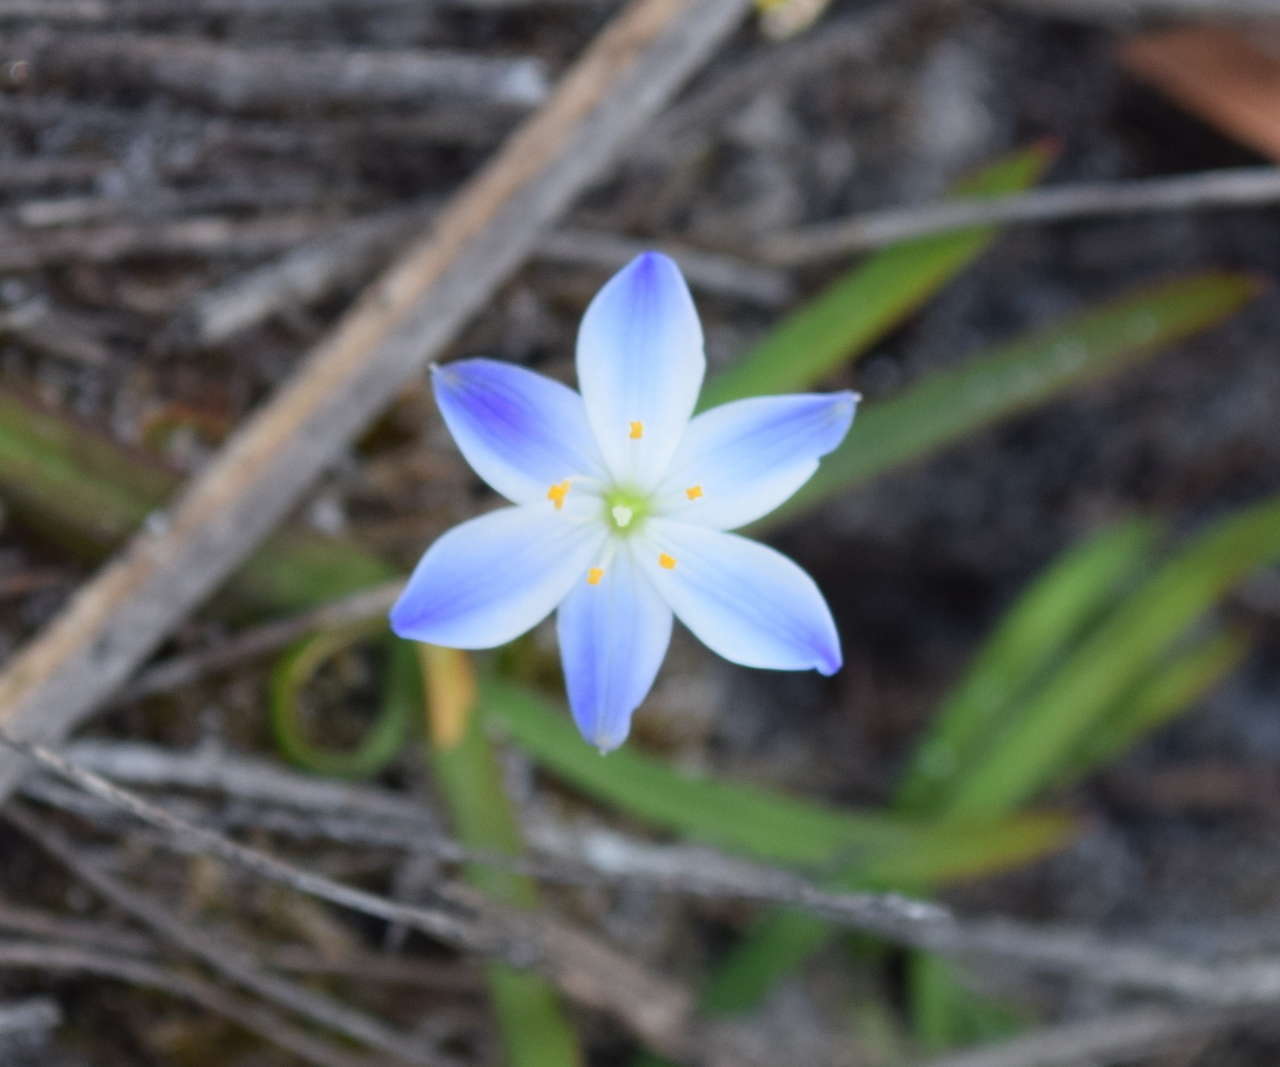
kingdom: Plantae
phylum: Tracheophyta
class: Liliopsida
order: Asparagales
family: Asphodelaceae
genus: Chamaescilla
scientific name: Chamaescilla corymbosa
